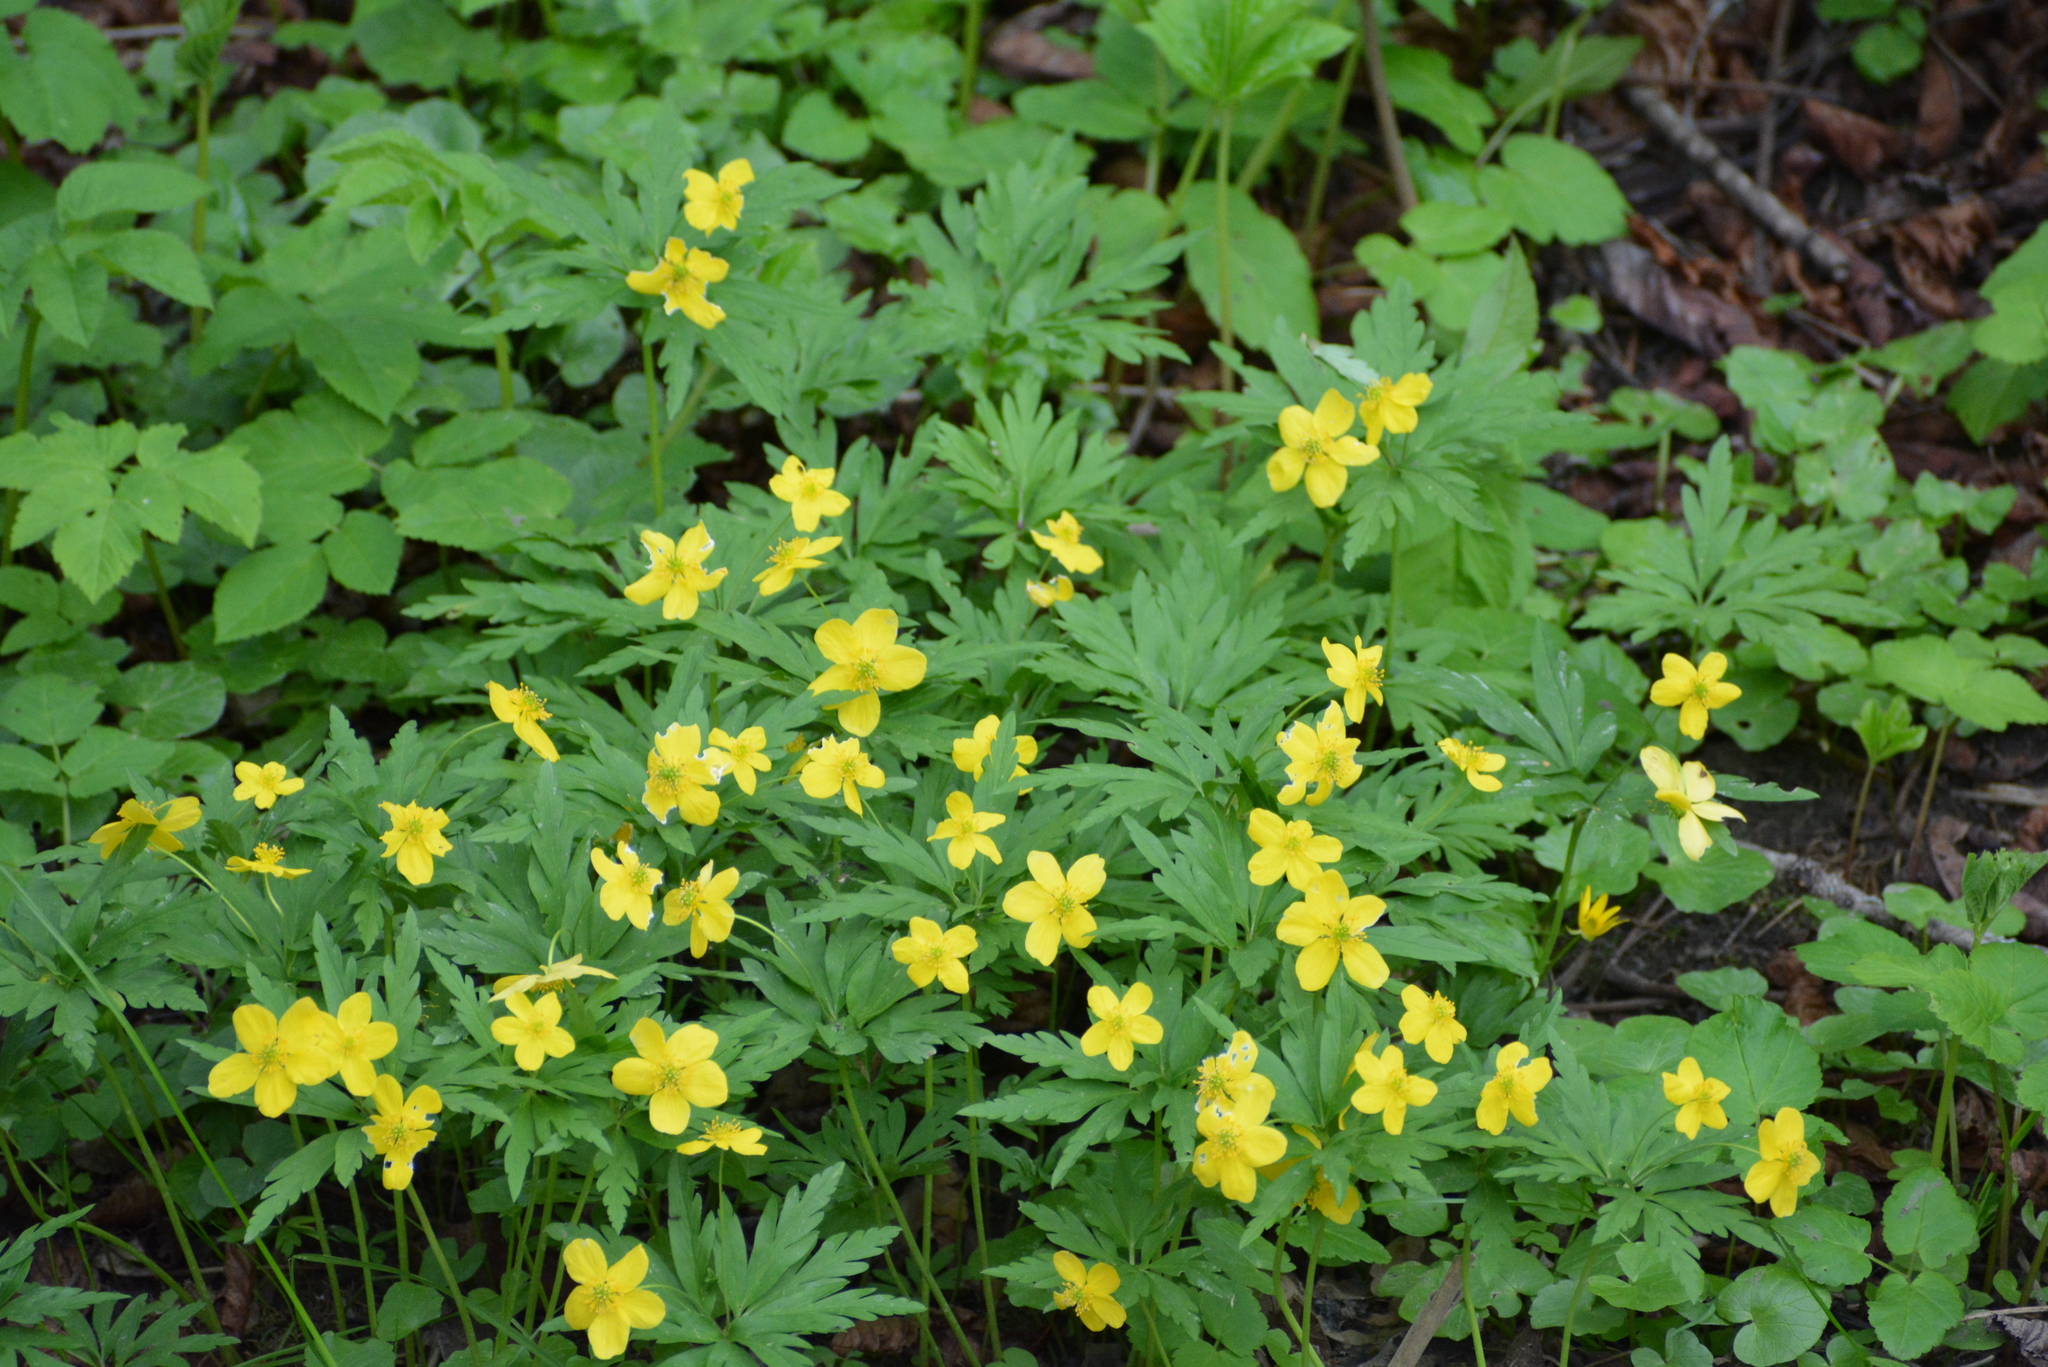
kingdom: Plantae
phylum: Tracheophyta
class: Magnoliopsida
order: Ranunculales
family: Ranunculaceae
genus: Anemone
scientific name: Anemone ranunculoides
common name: Yellow anemone
